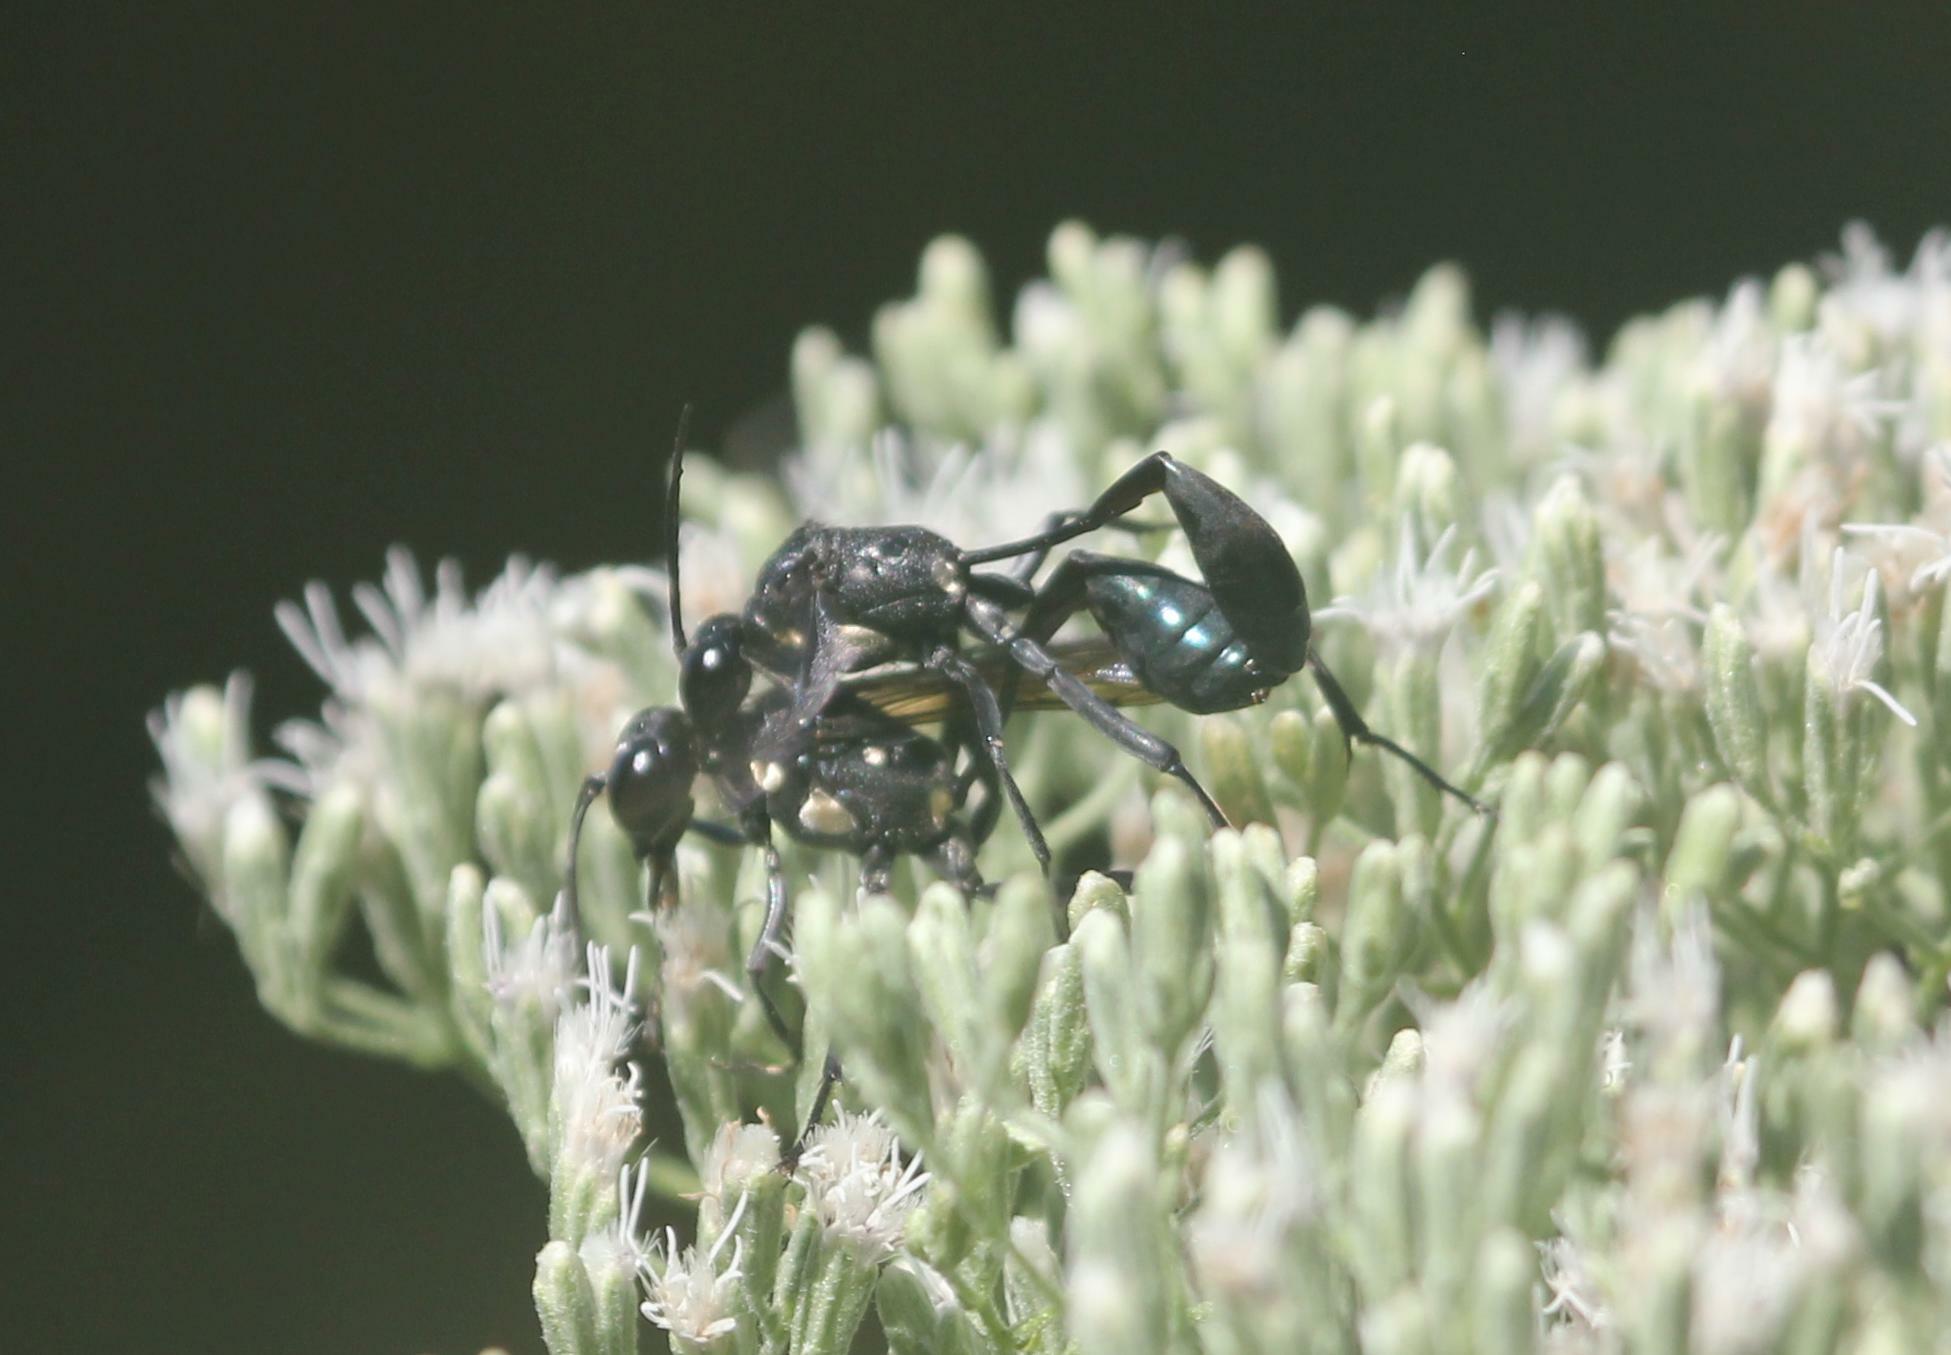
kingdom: Animalia
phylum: Arthropoda
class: Insecta
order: Hymenoptera
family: Sphecidae
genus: Eremnophila
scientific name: Eremnophila aureonotata
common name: Gold-marked thread-waisted wasp
